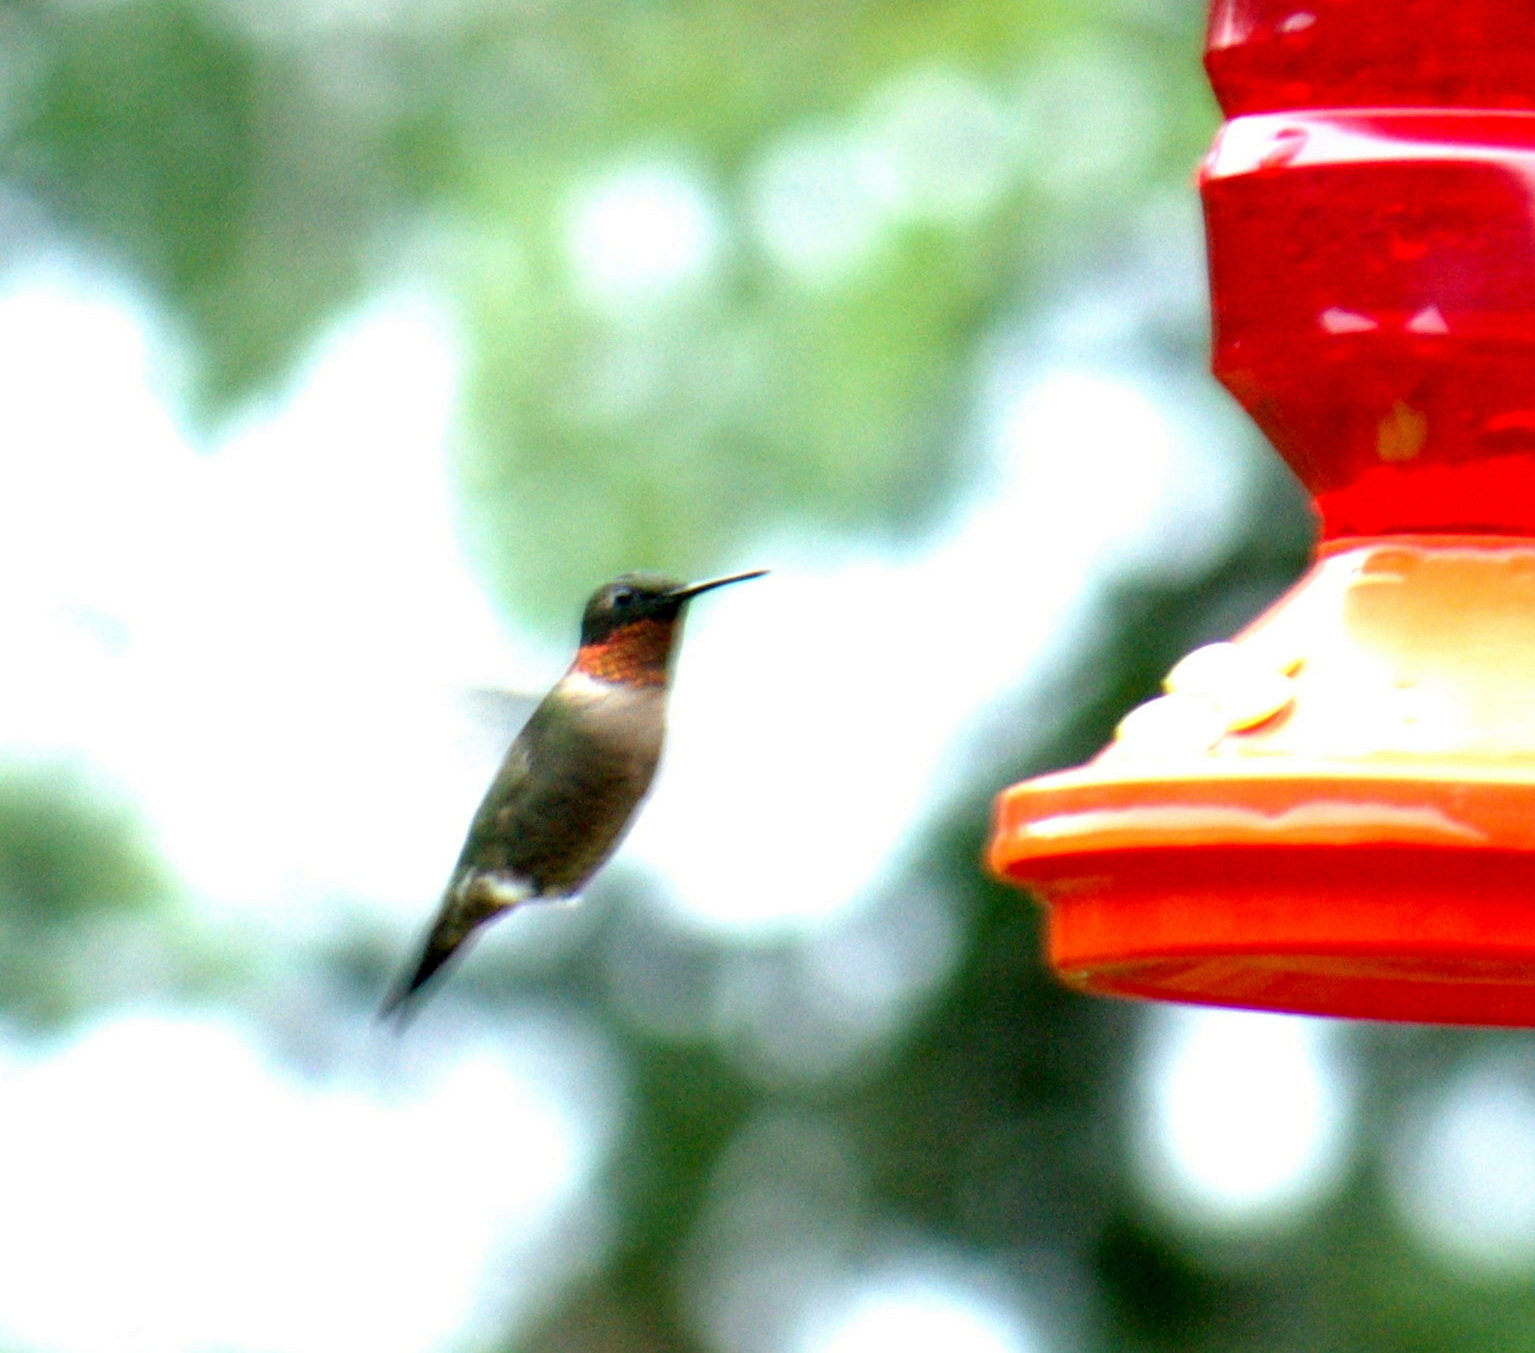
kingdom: Animalia
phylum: Chordata
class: Aves
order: Apodiformes
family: Trochilidae
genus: Archilochus
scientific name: Archilochus colubris
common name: Ruby-throated hummingbird
